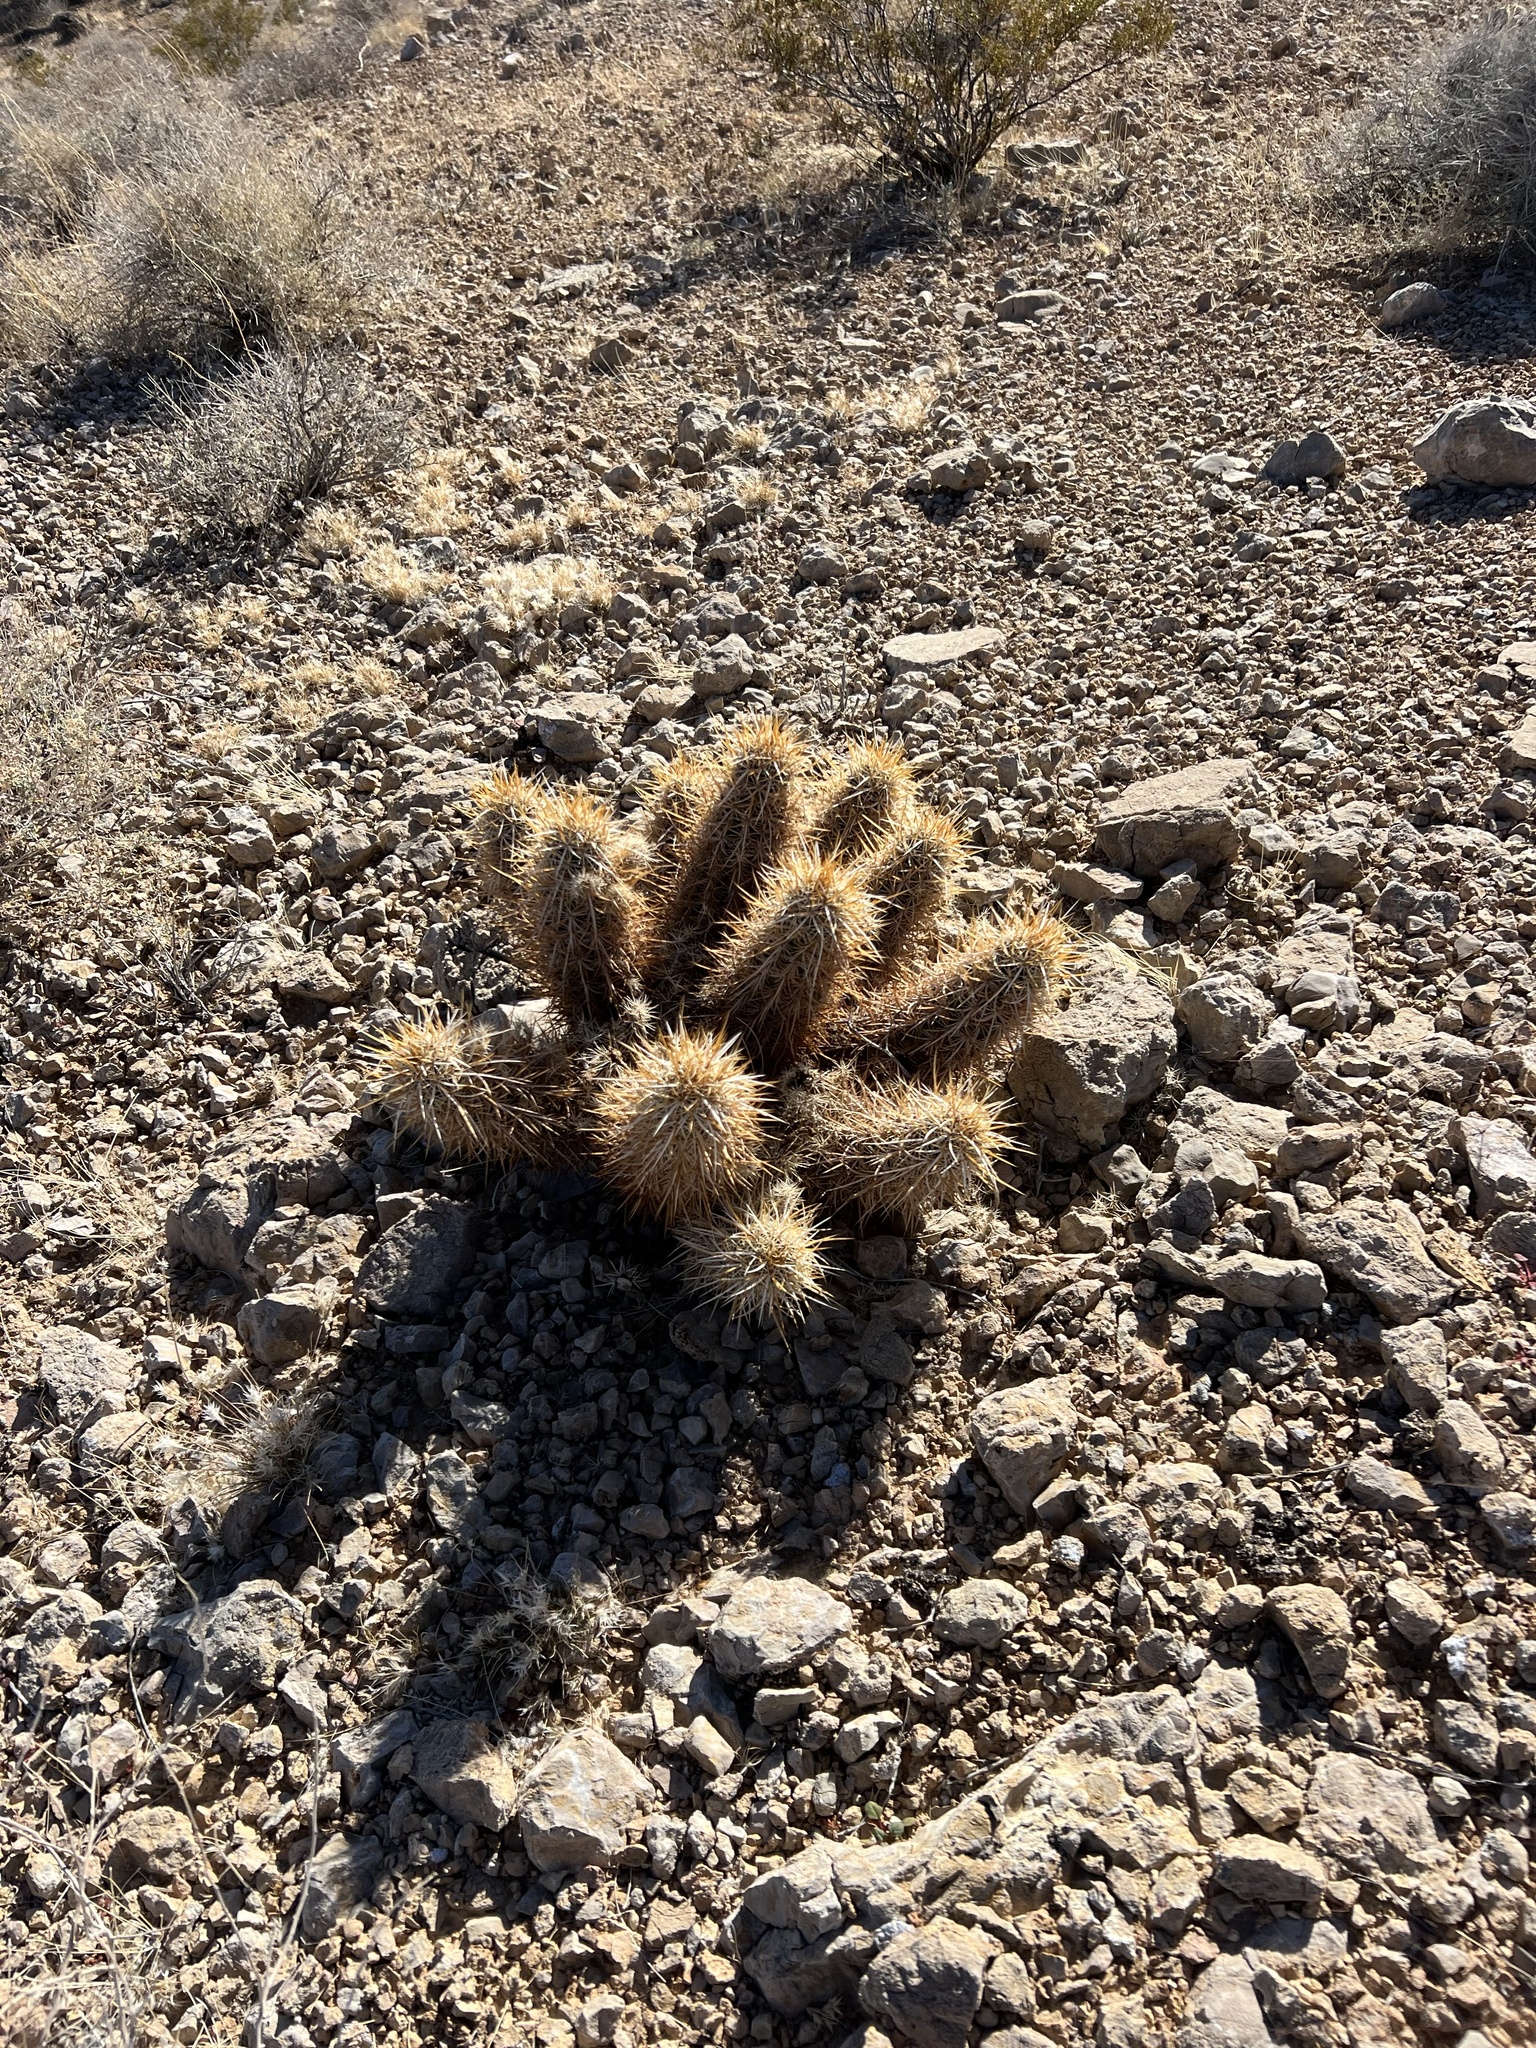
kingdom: Plantae
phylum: Tracheophyta
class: Magnoliopsida
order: Caryophyllales
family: Cactaceae
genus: Echinocereus
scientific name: Echinocereus engelmannii
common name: Engelmann's hedgehog cactus
